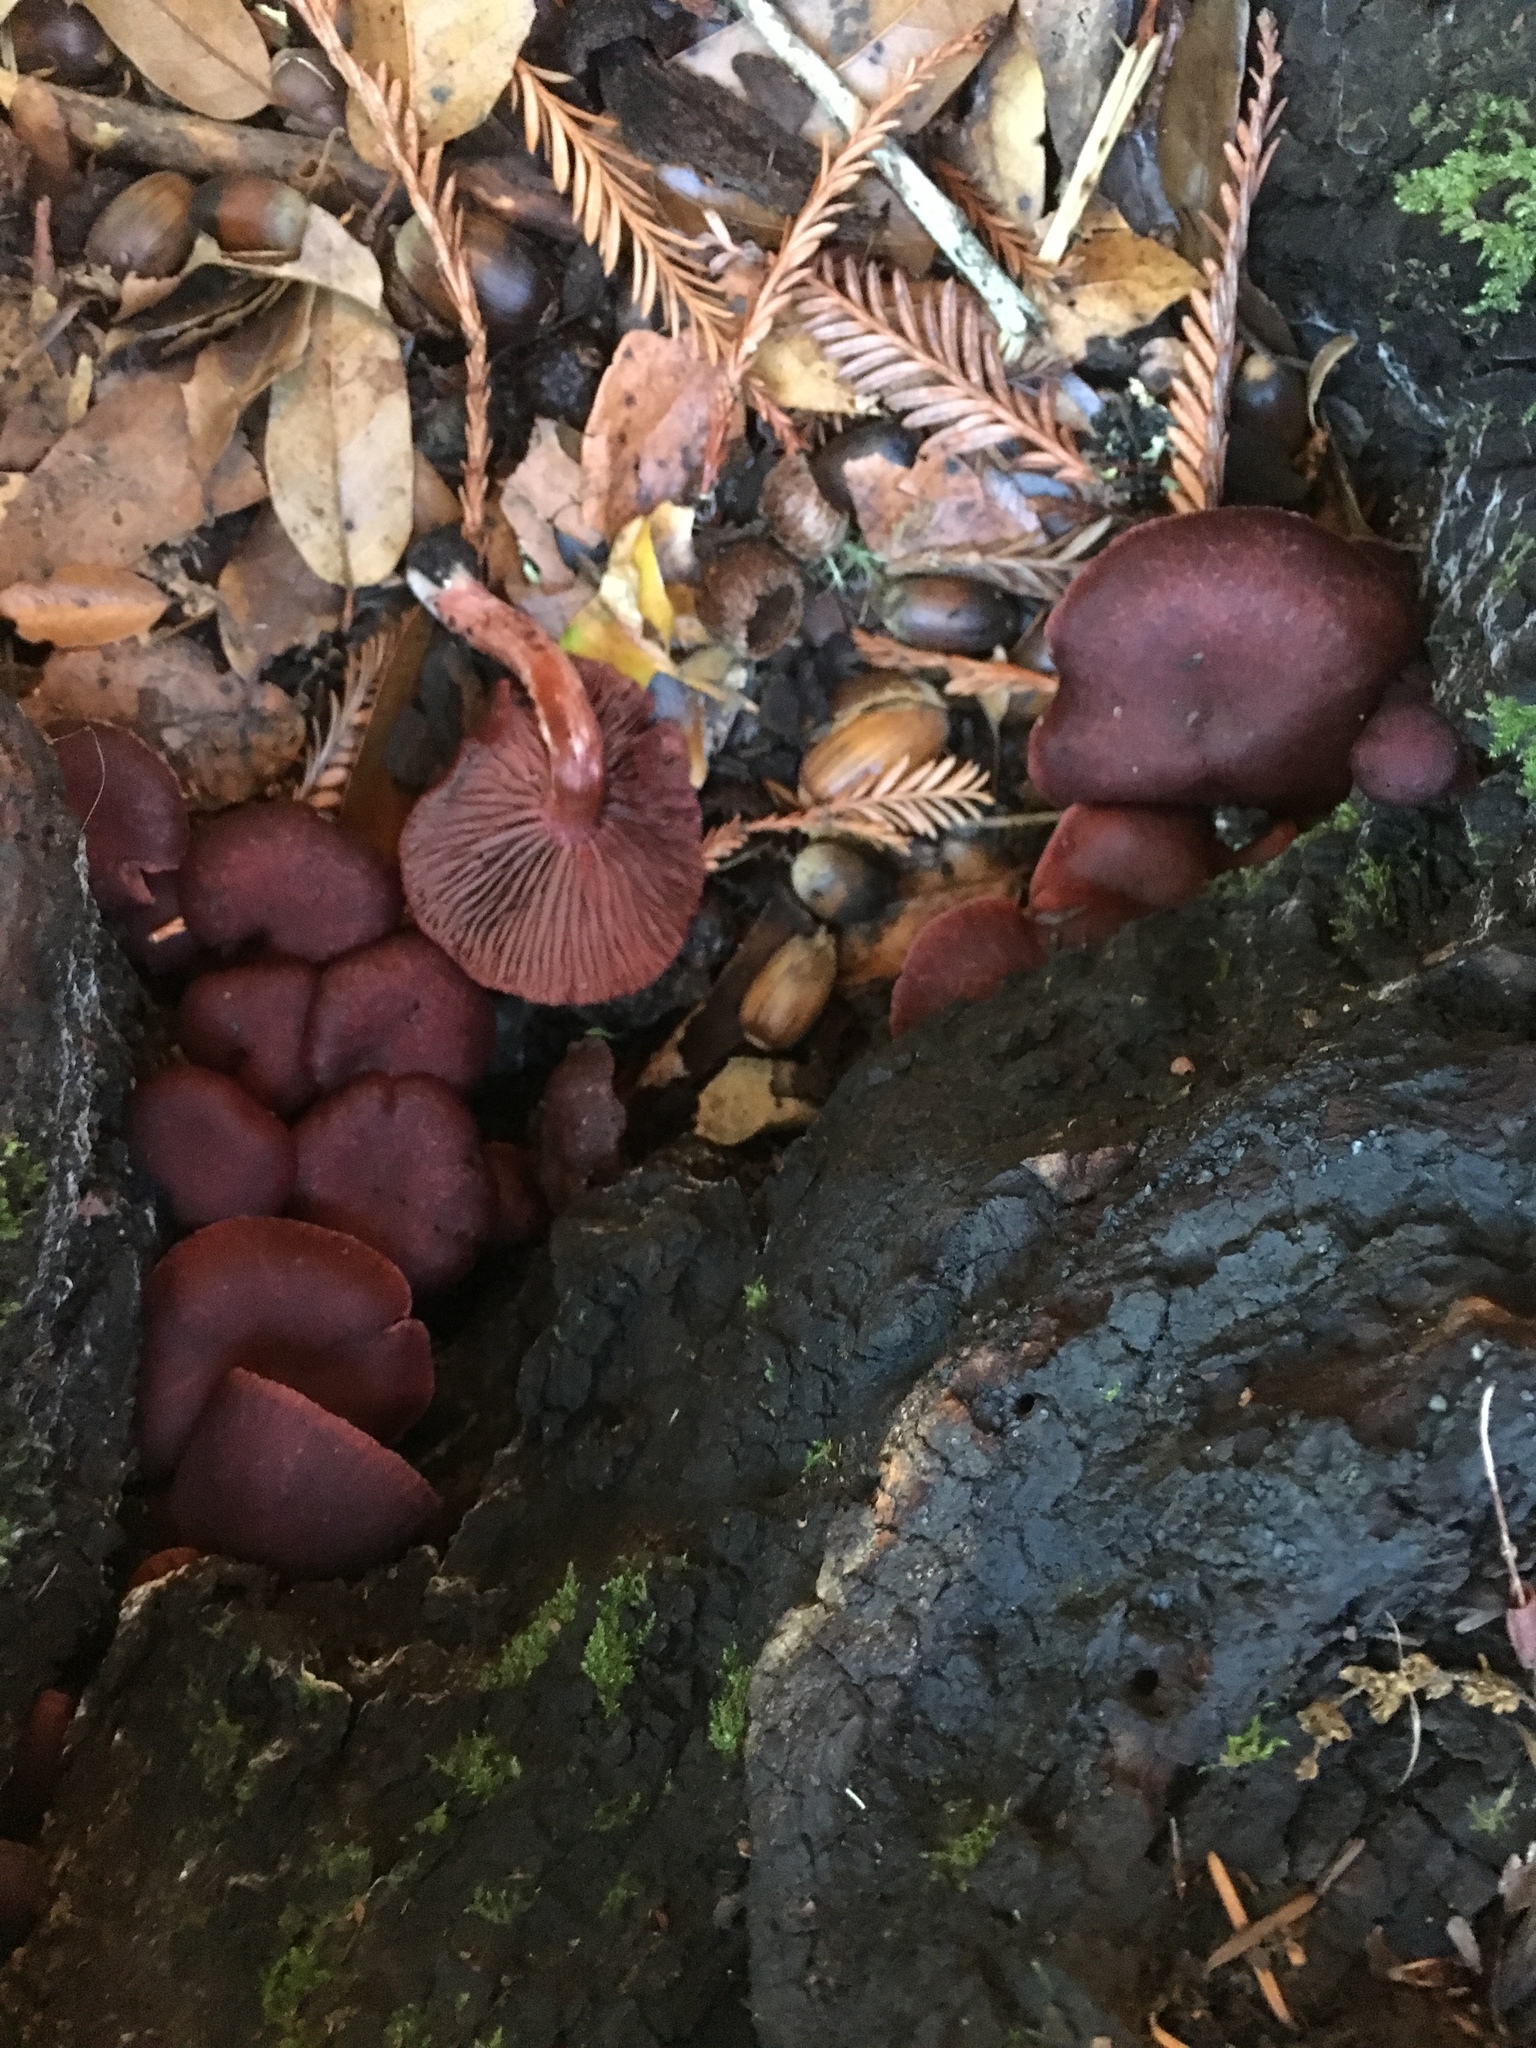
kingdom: Fungi
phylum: Basidiomycota
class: Agaricomycetes
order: Agaricales
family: Tubariaceae
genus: Tubaria
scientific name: Tubaria punicea
